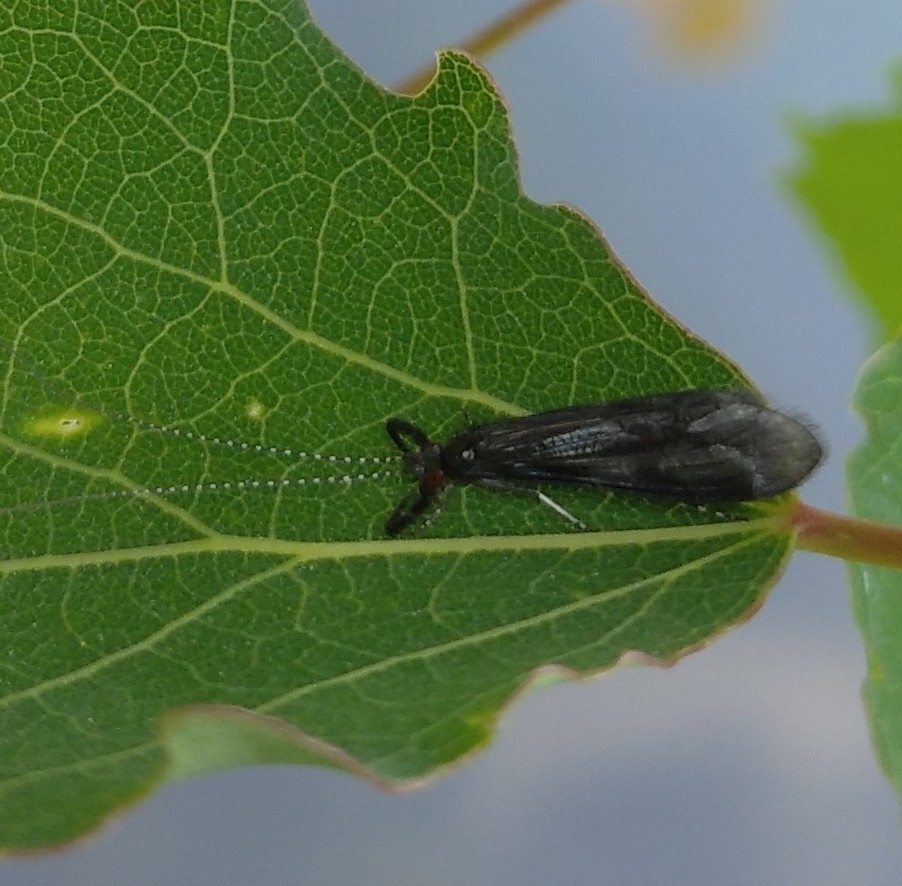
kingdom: Animalia
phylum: Arthropoda
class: Insecta
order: Trichoptera
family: Leptoceridae
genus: Mystacides
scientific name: Mystacides azureus
